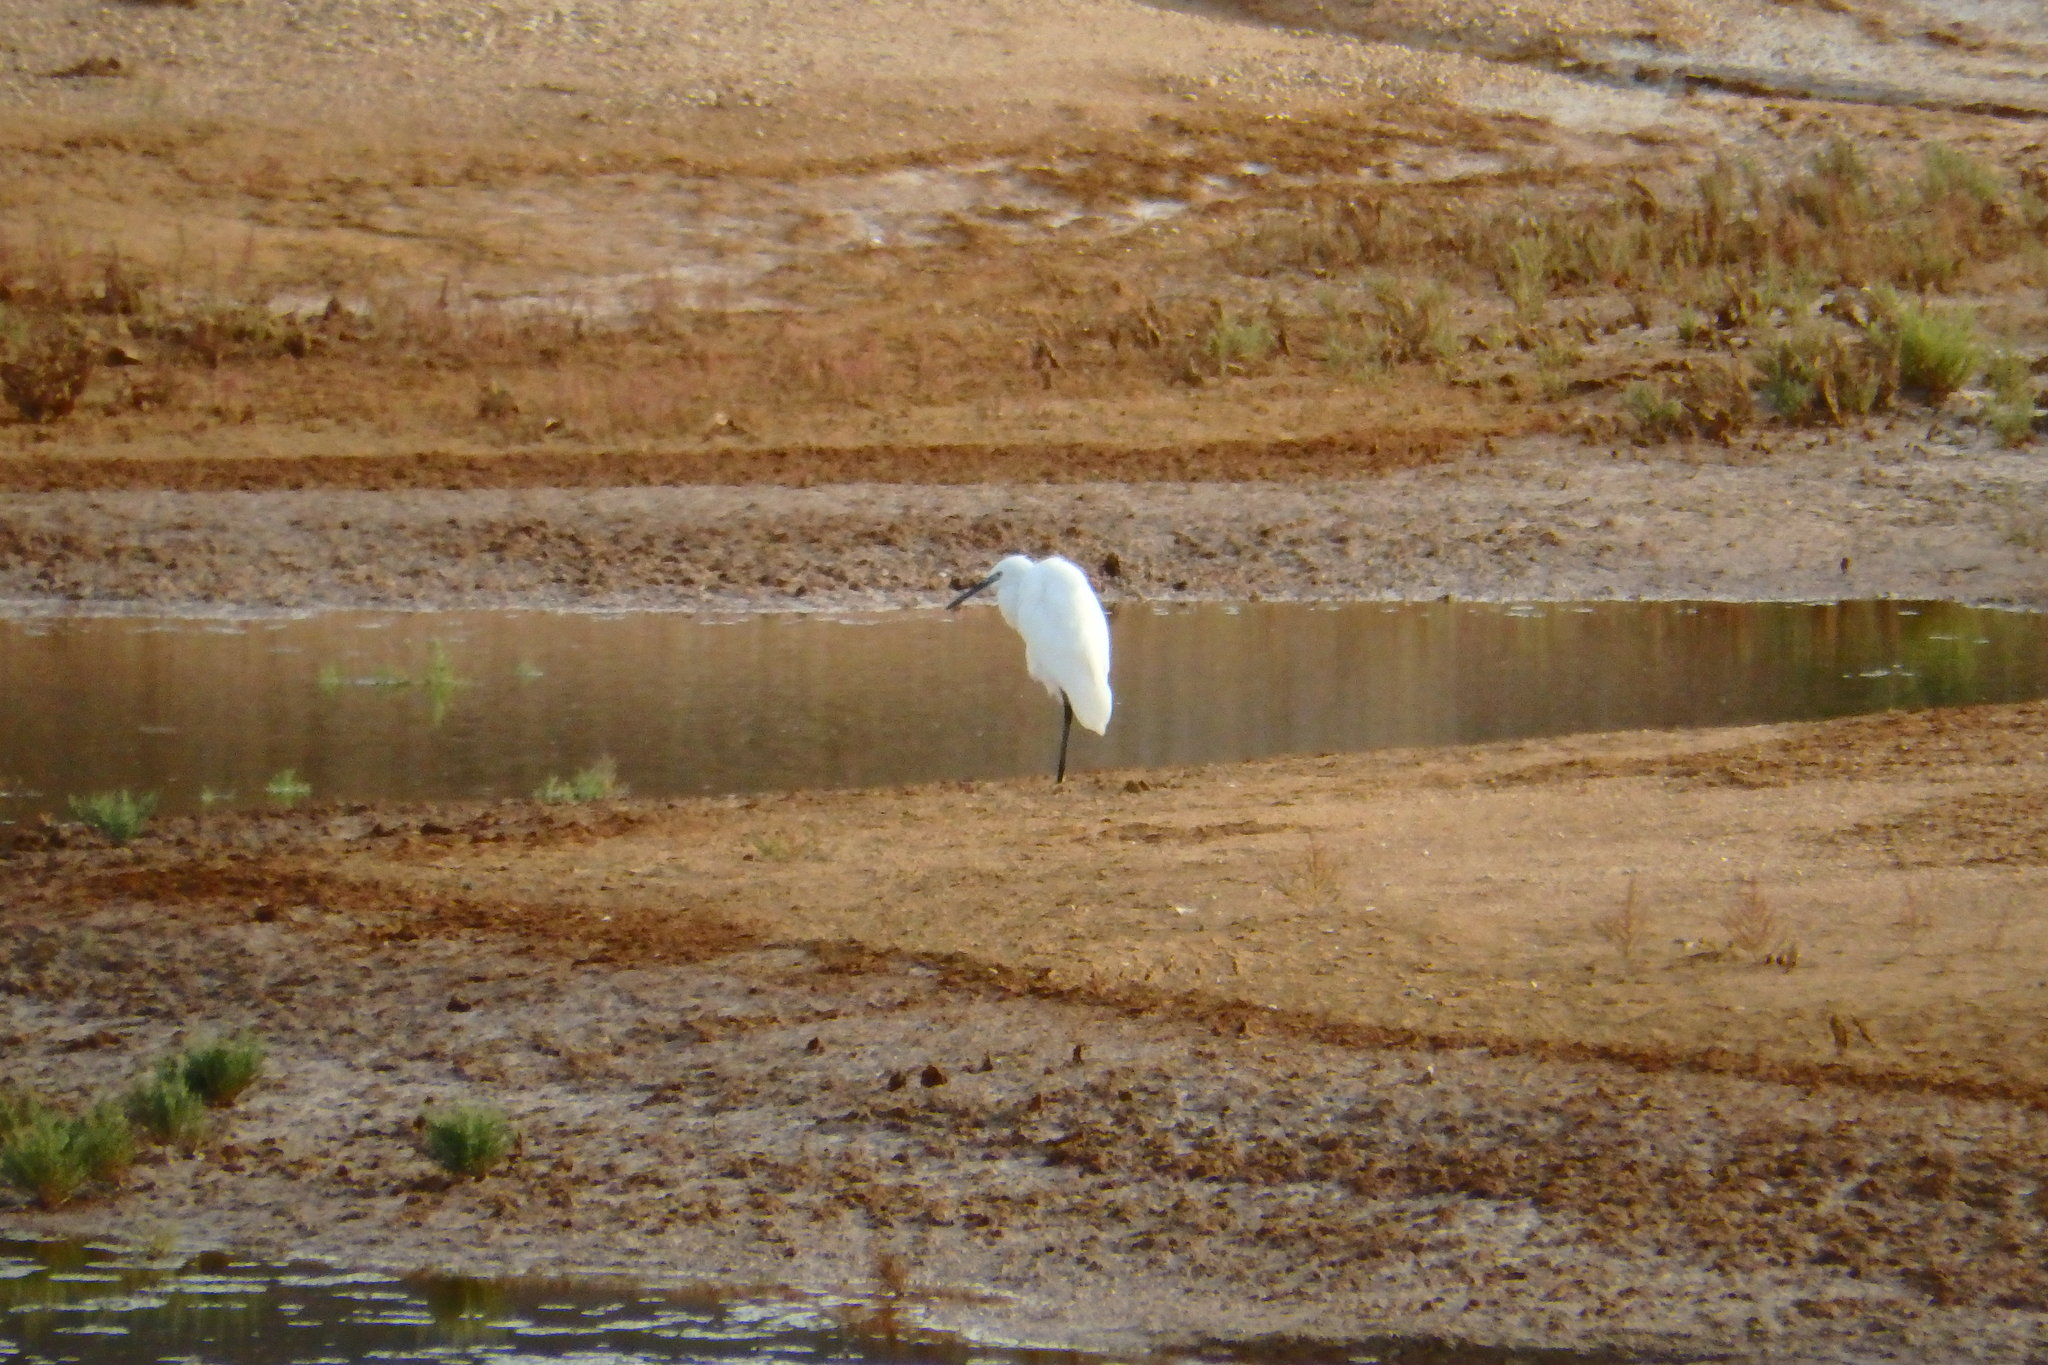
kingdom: Animalia
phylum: Chordata
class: Aves
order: Pelecaniformes
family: Ardeidae
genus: Egretta
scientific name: Egretta garzetta
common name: Little egret
